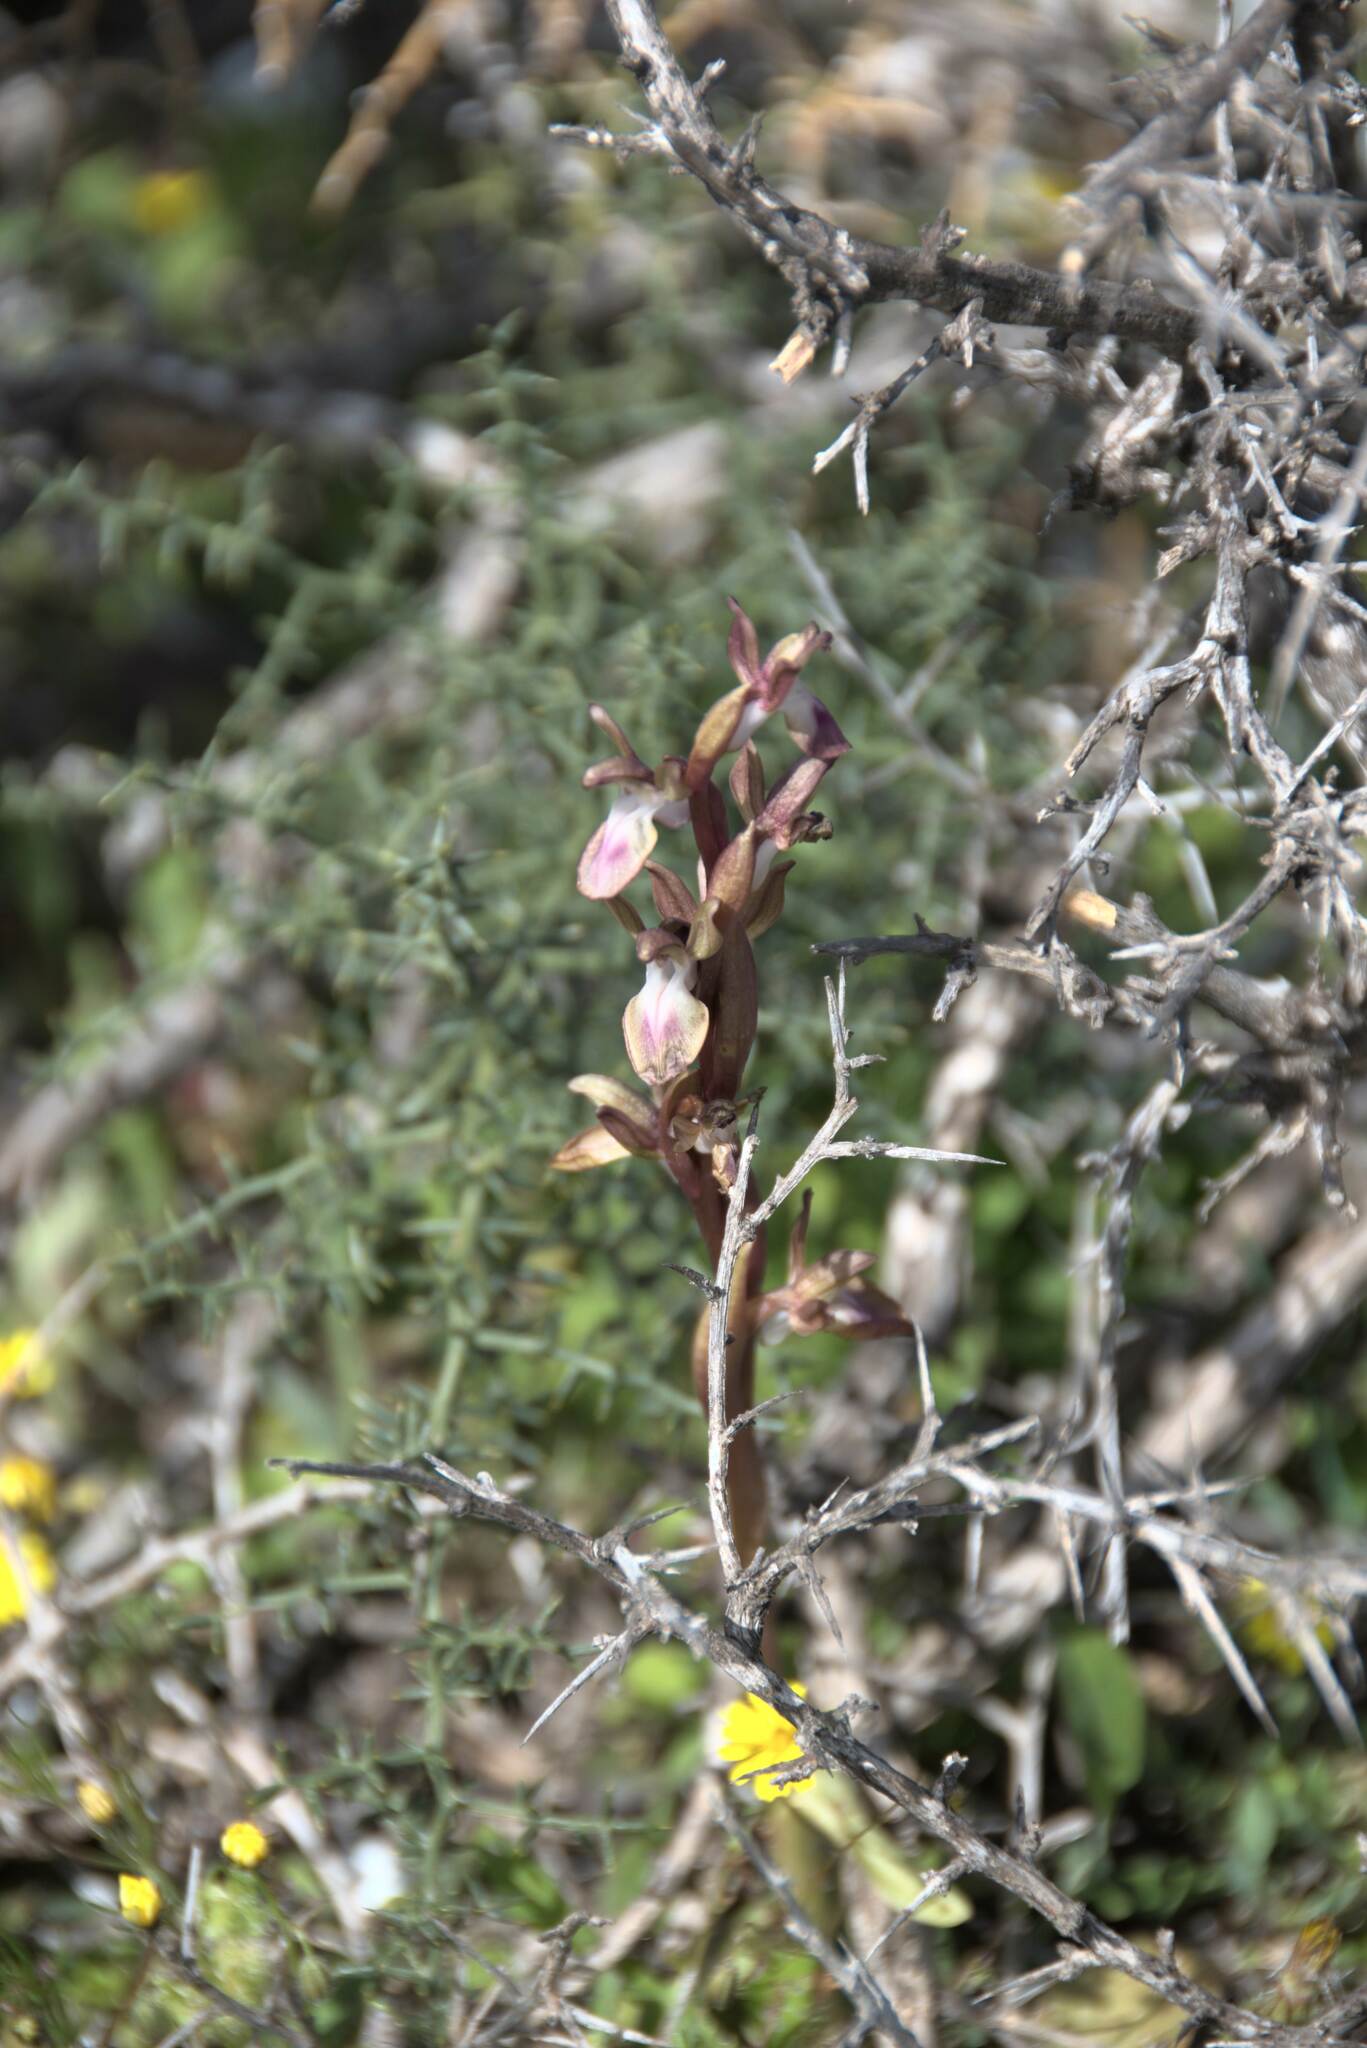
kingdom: Plantae
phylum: Tracheophyta
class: Liliopsida
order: Asparagales
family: Orchidaceae
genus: Anacamptis
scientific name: Anacamptis collina
